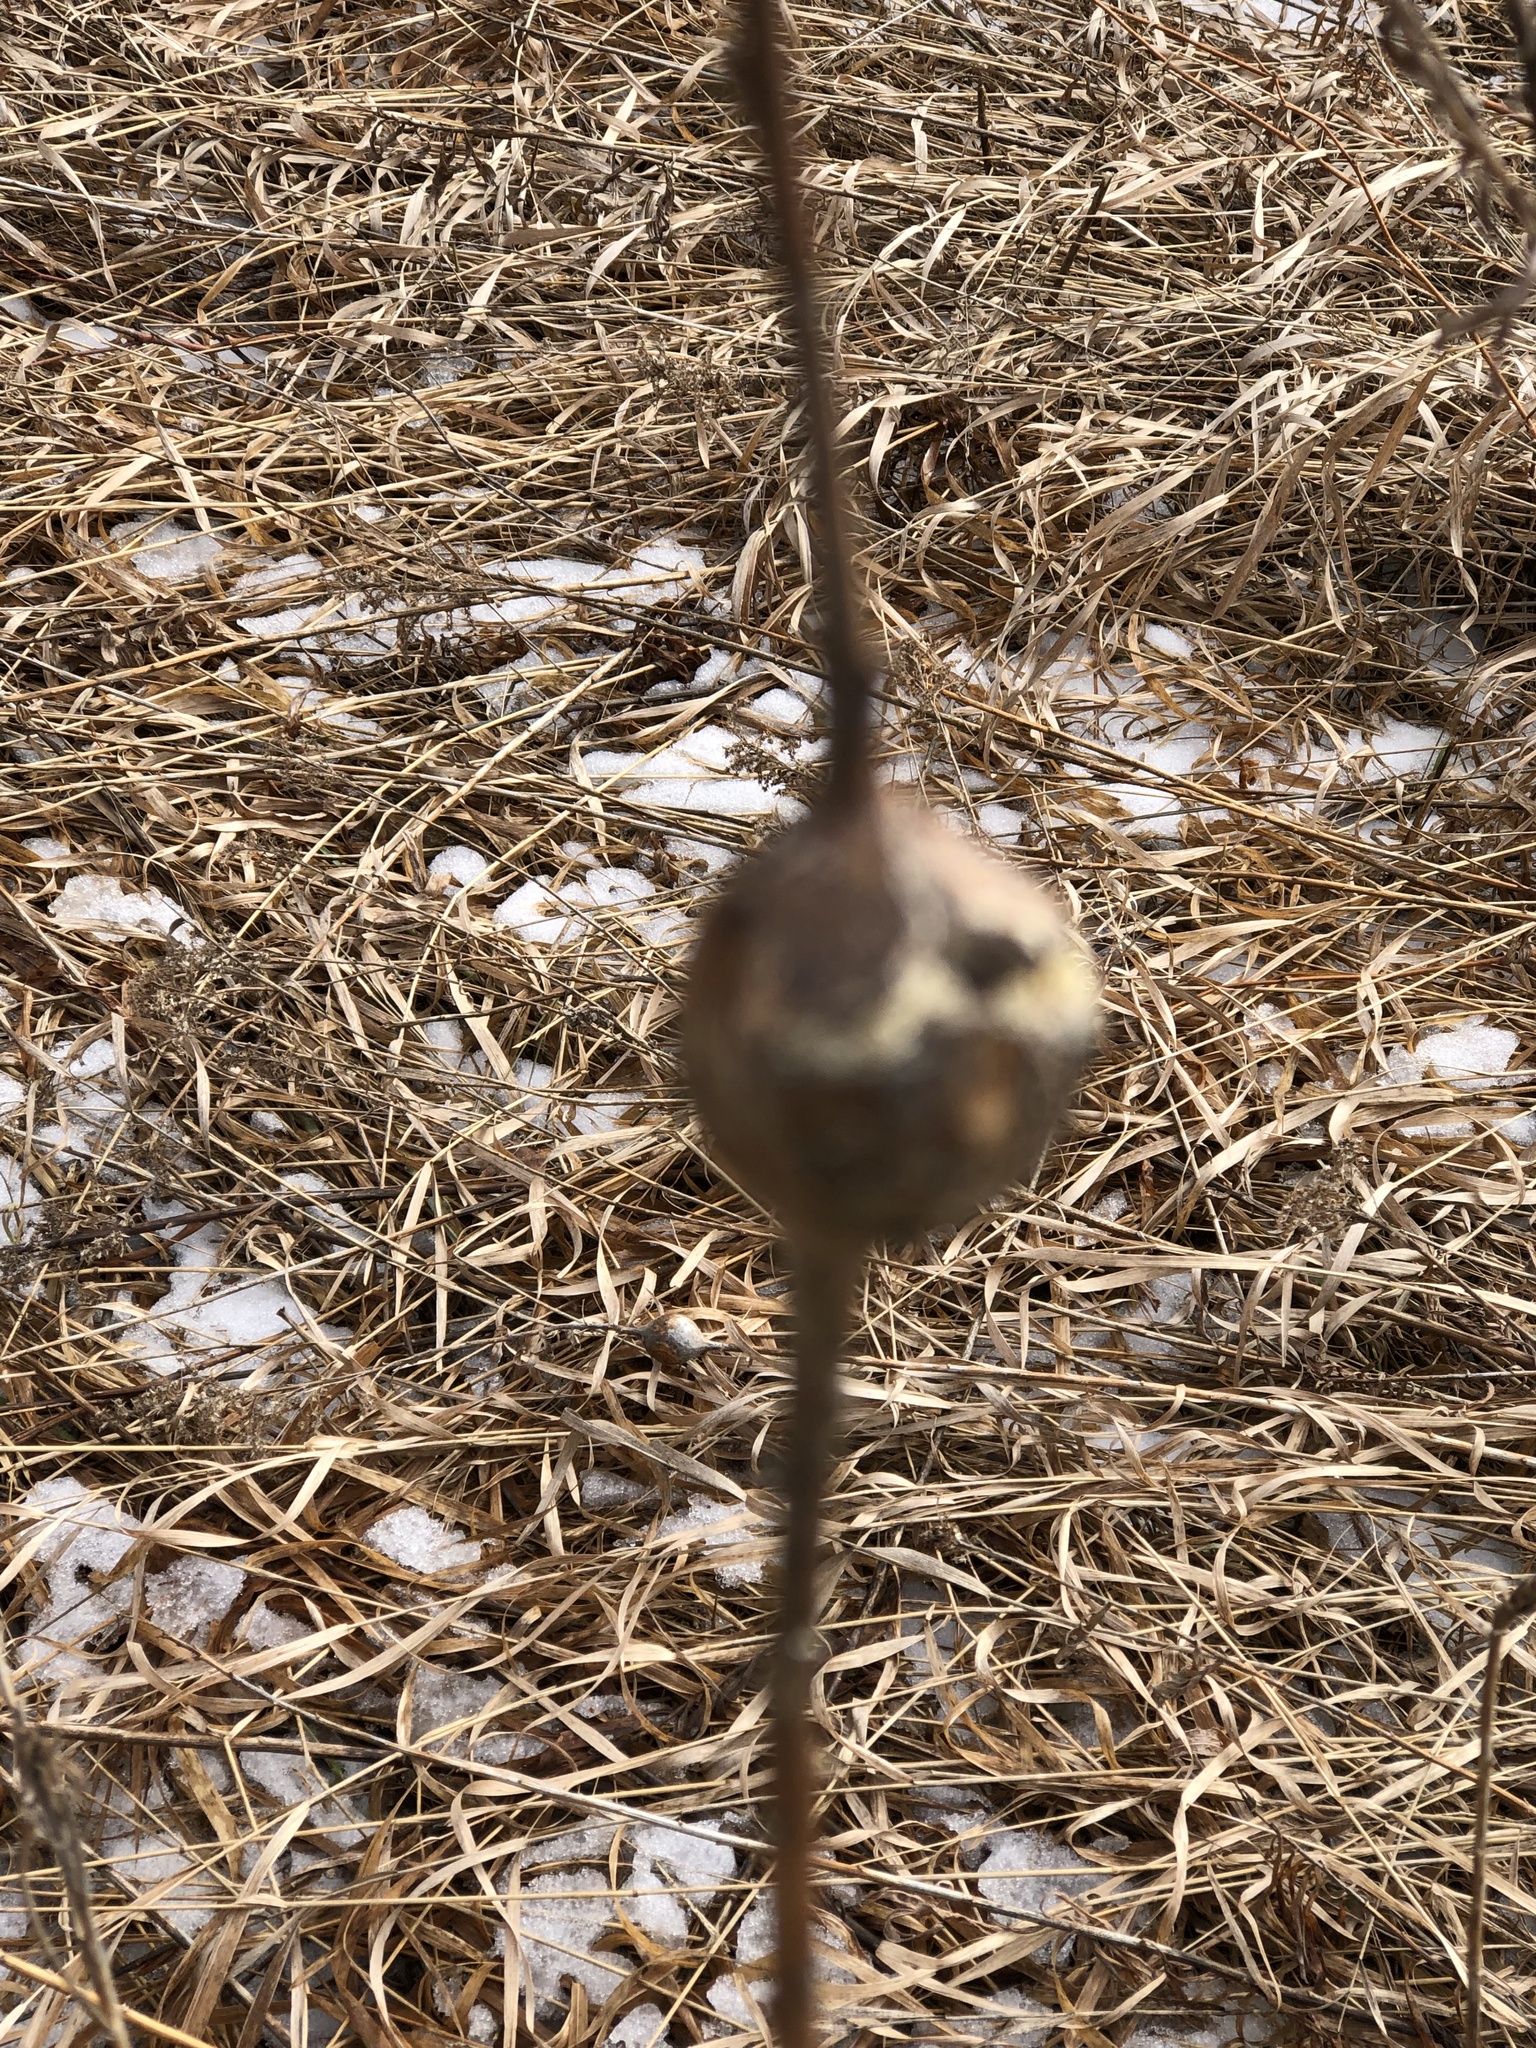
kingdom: Animalia
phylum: Arthropoda
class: Insecta
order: Diptera
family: Tephritidae
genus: Eurosta
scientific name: Eurosta solidaginis
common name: Goldenrod gall fly
